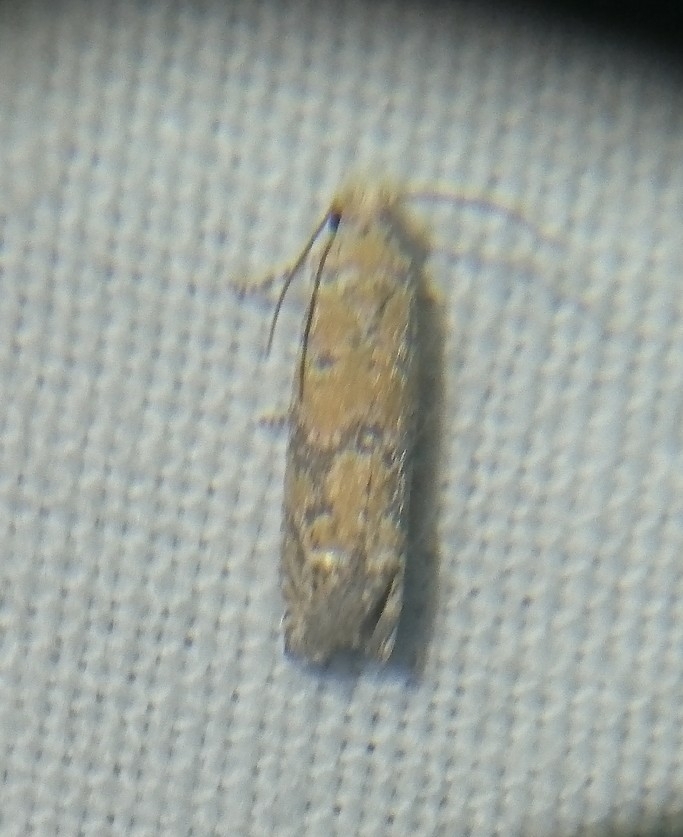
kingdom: Animalia
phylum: Arthropoda
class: Insecta
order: Lepidoptera
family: Tortricidae
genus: Pelochrista
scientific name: Pelochrista pallidipalpana
